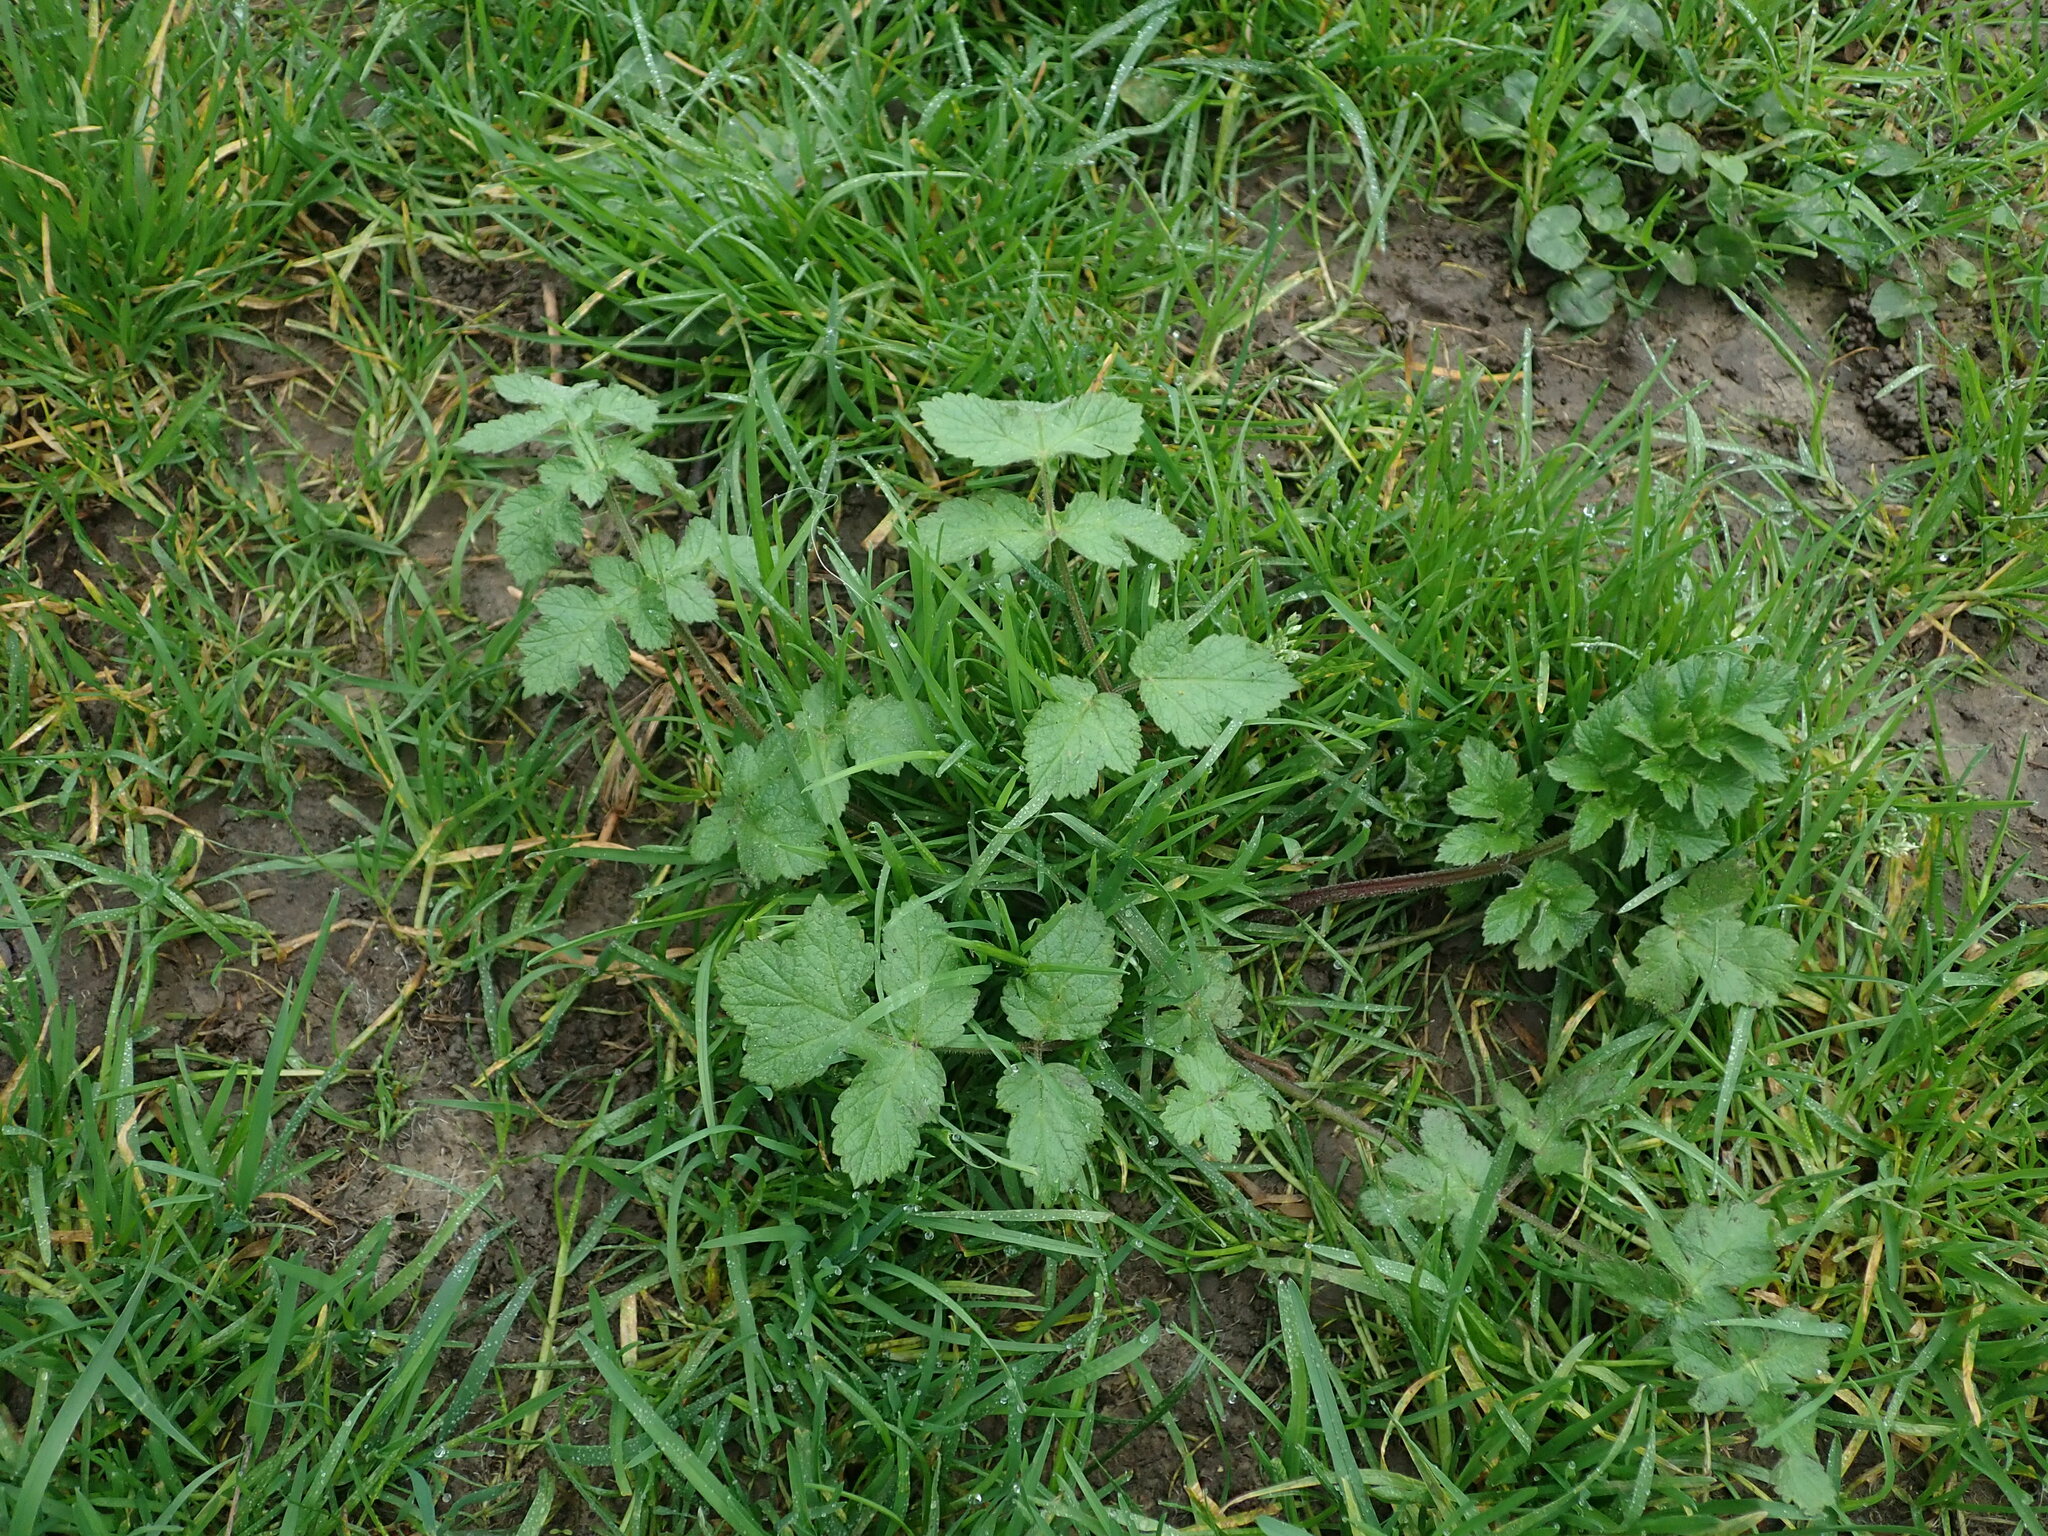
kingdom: Plantae
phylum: Tracheophyta
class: Magnoliopsida
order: Apiales
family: Apiaceae
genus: Heracleum
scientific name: Heracleum sphondylium
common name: Hogweed
